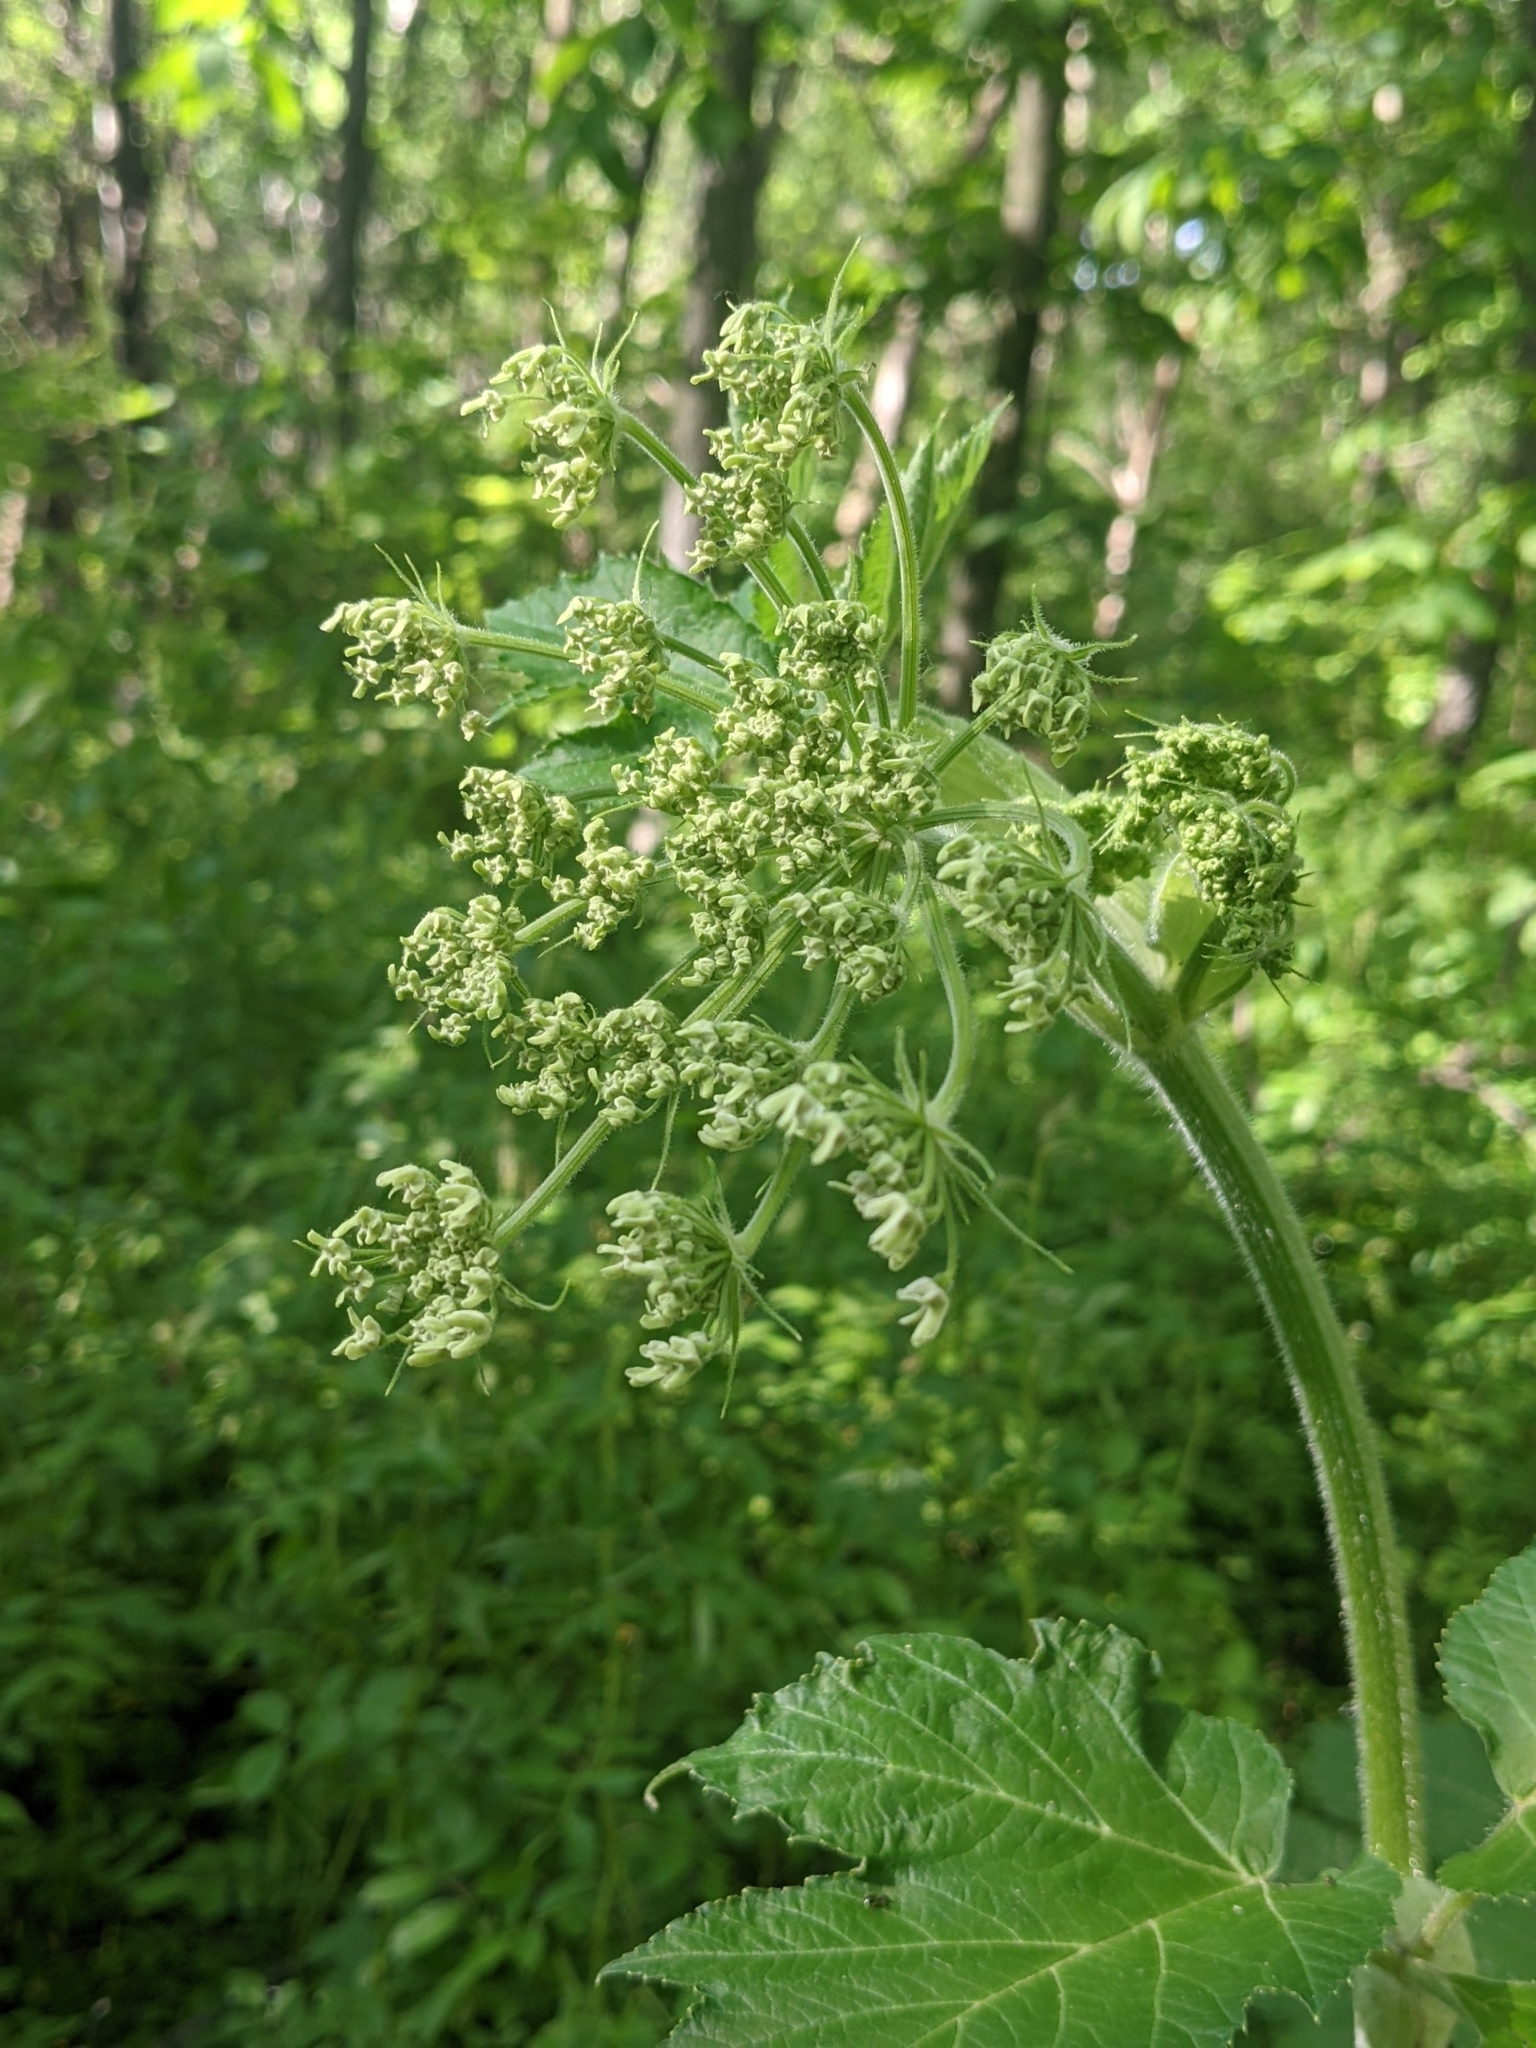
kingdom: Plantae
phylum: Tracheophyta
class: Magnoliopsida
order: Apiales
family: Apiaceae
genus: Heracleum
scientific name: Heracleum maximum
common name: American cow parsnip
